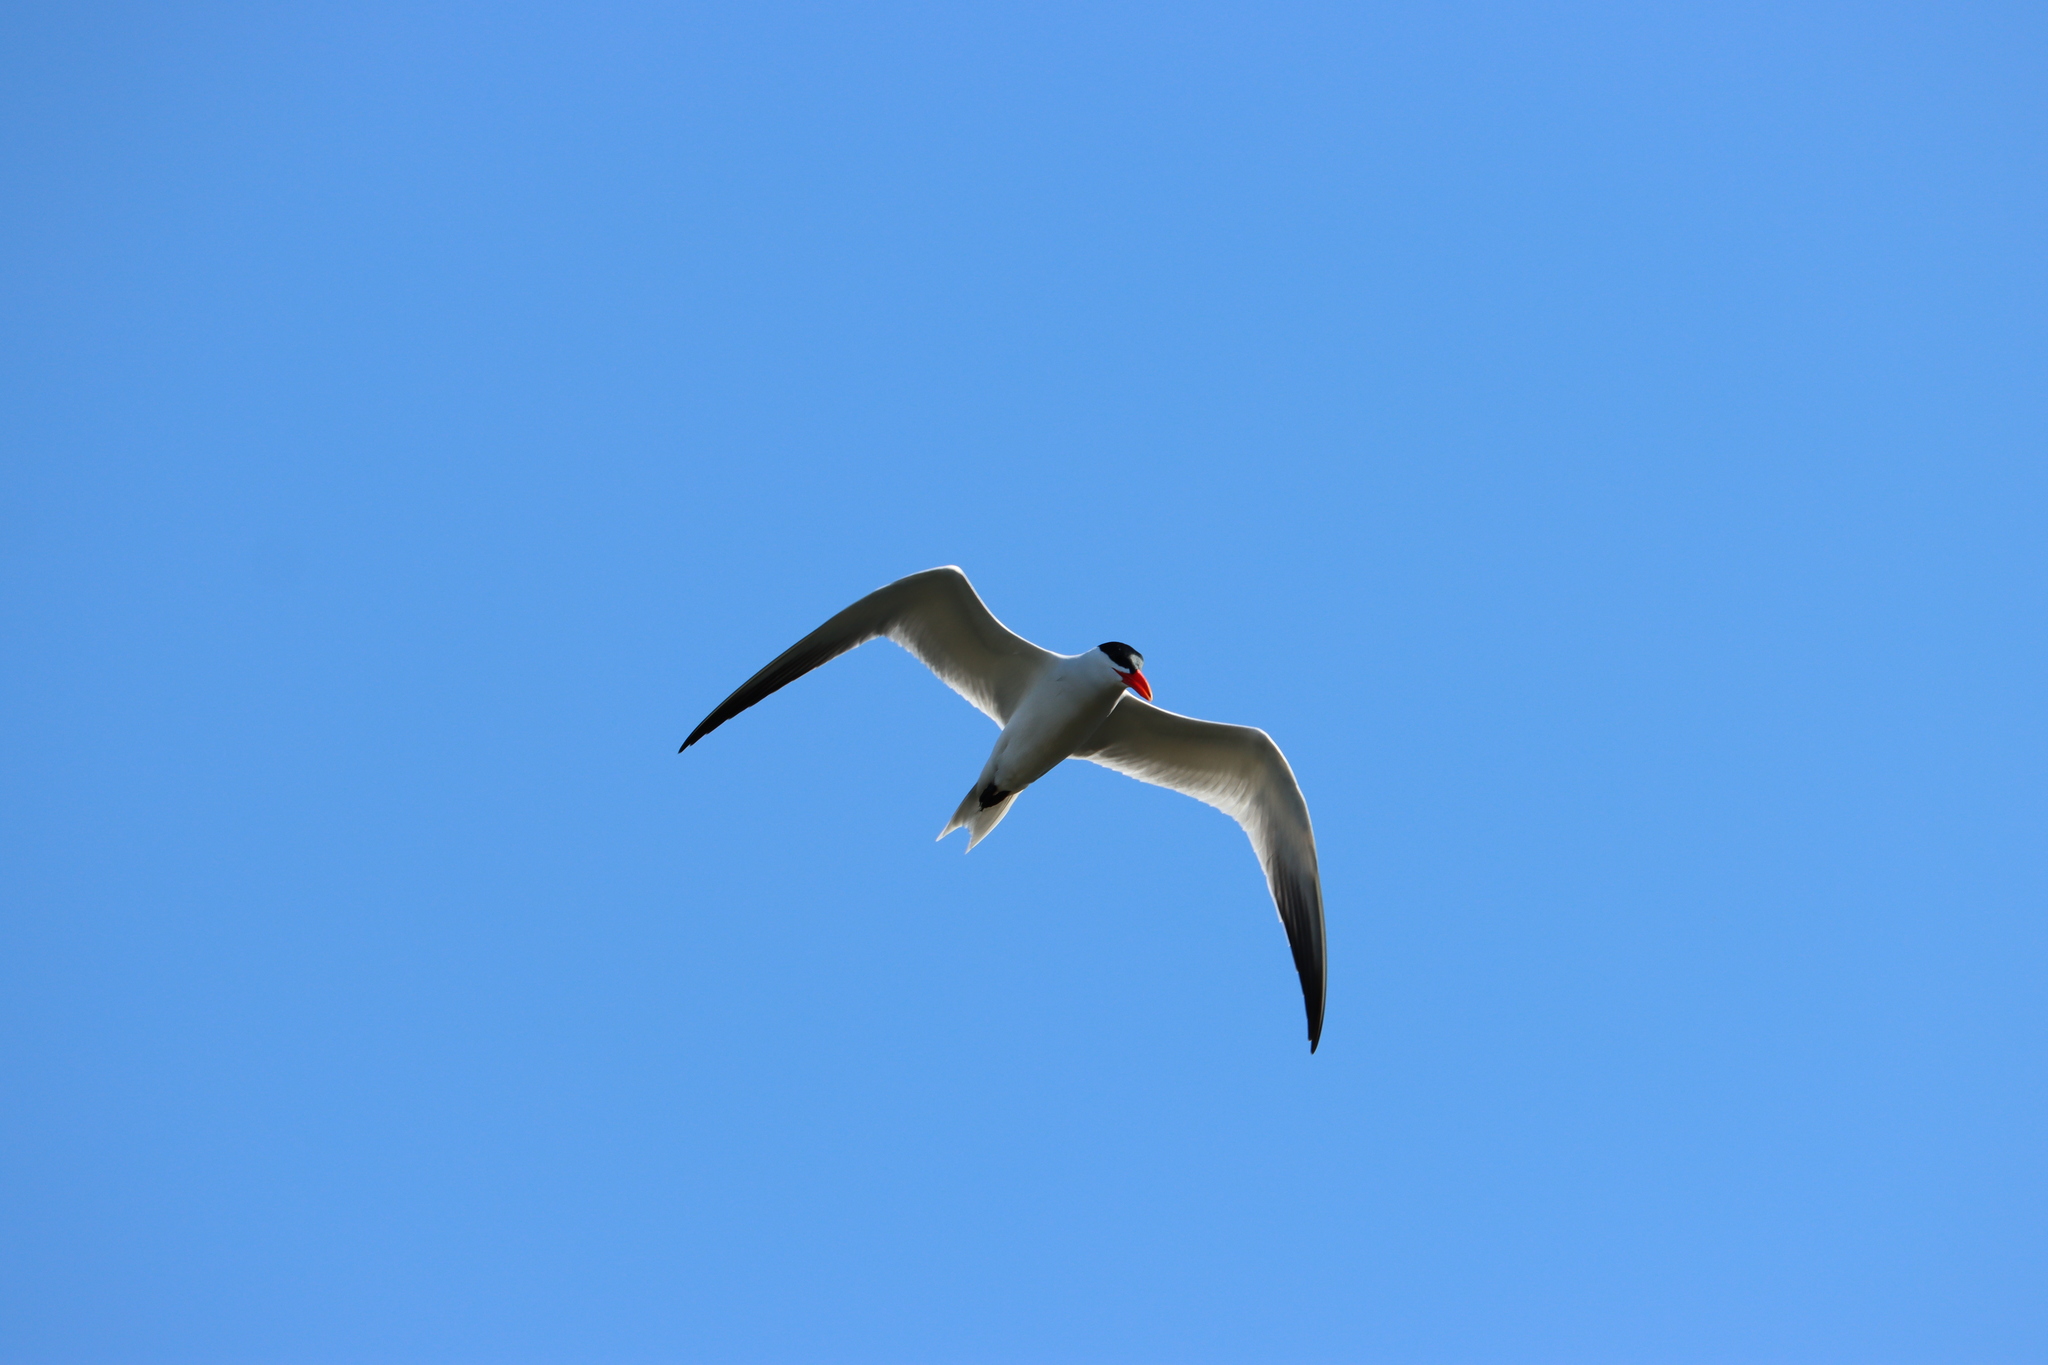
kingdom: Animalia
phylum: Chordata
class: Aves
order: Charadriiformes
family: Laridae
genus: Hydroprogne
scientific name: Hydroprogne caspia
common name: Caspian tern
